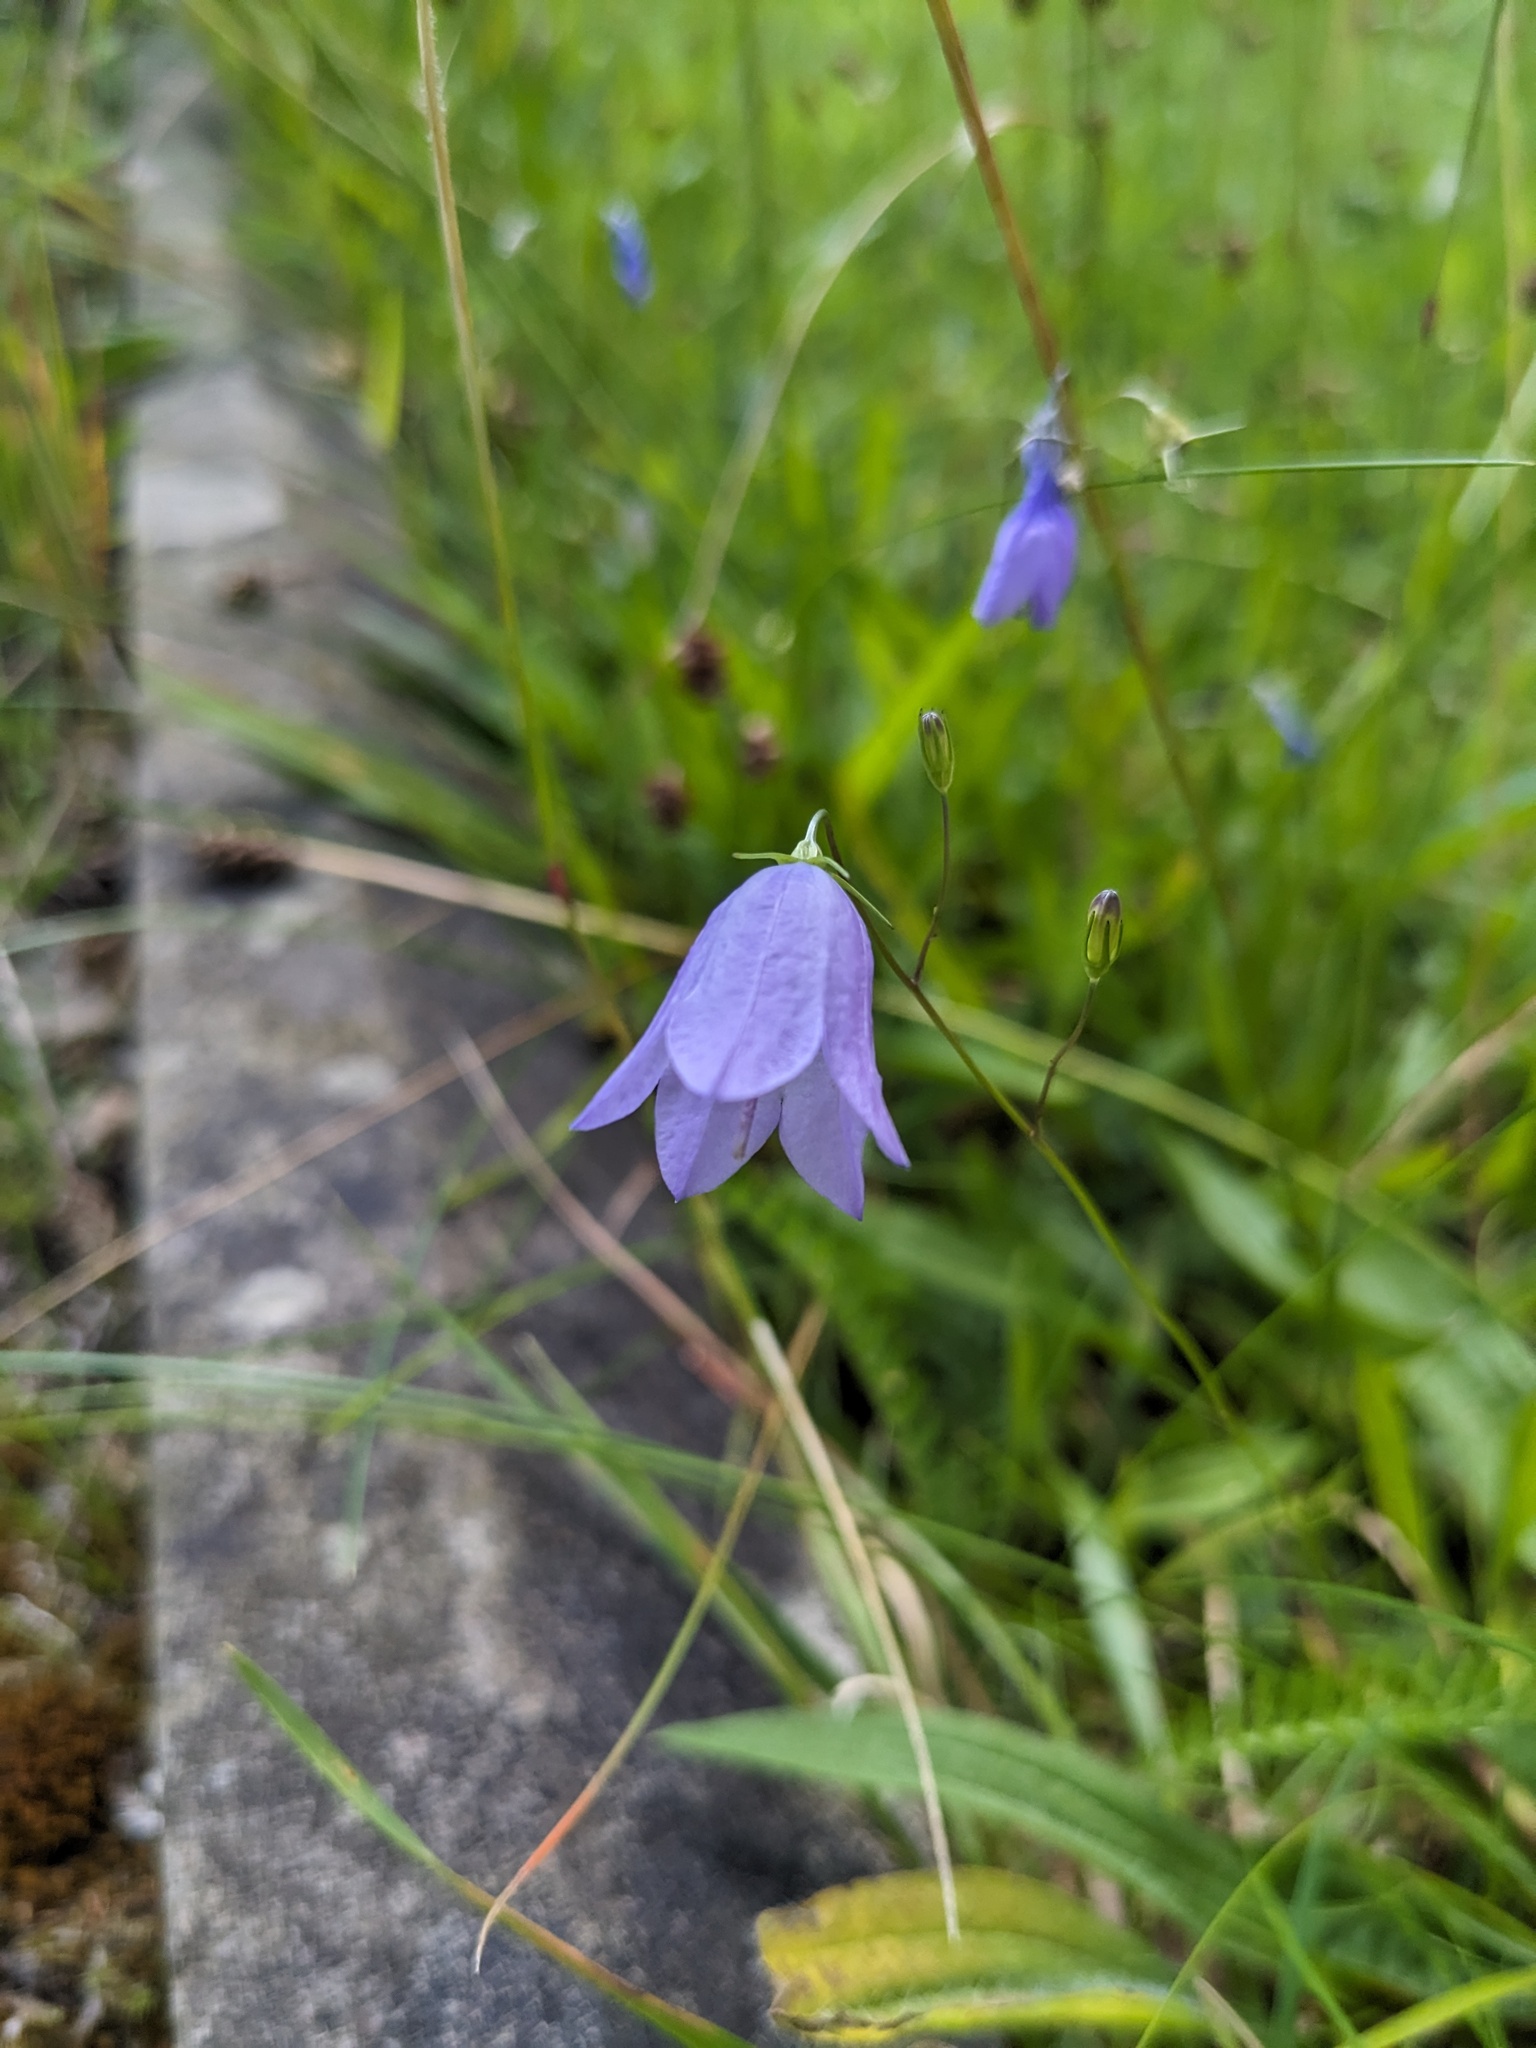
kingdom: Plantae
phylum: Tracheophyta
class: Magnoliopsida
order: Asterales
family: Campanulaceae
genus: Campanula
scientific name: Campanula rotundifolia
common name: Harebell
